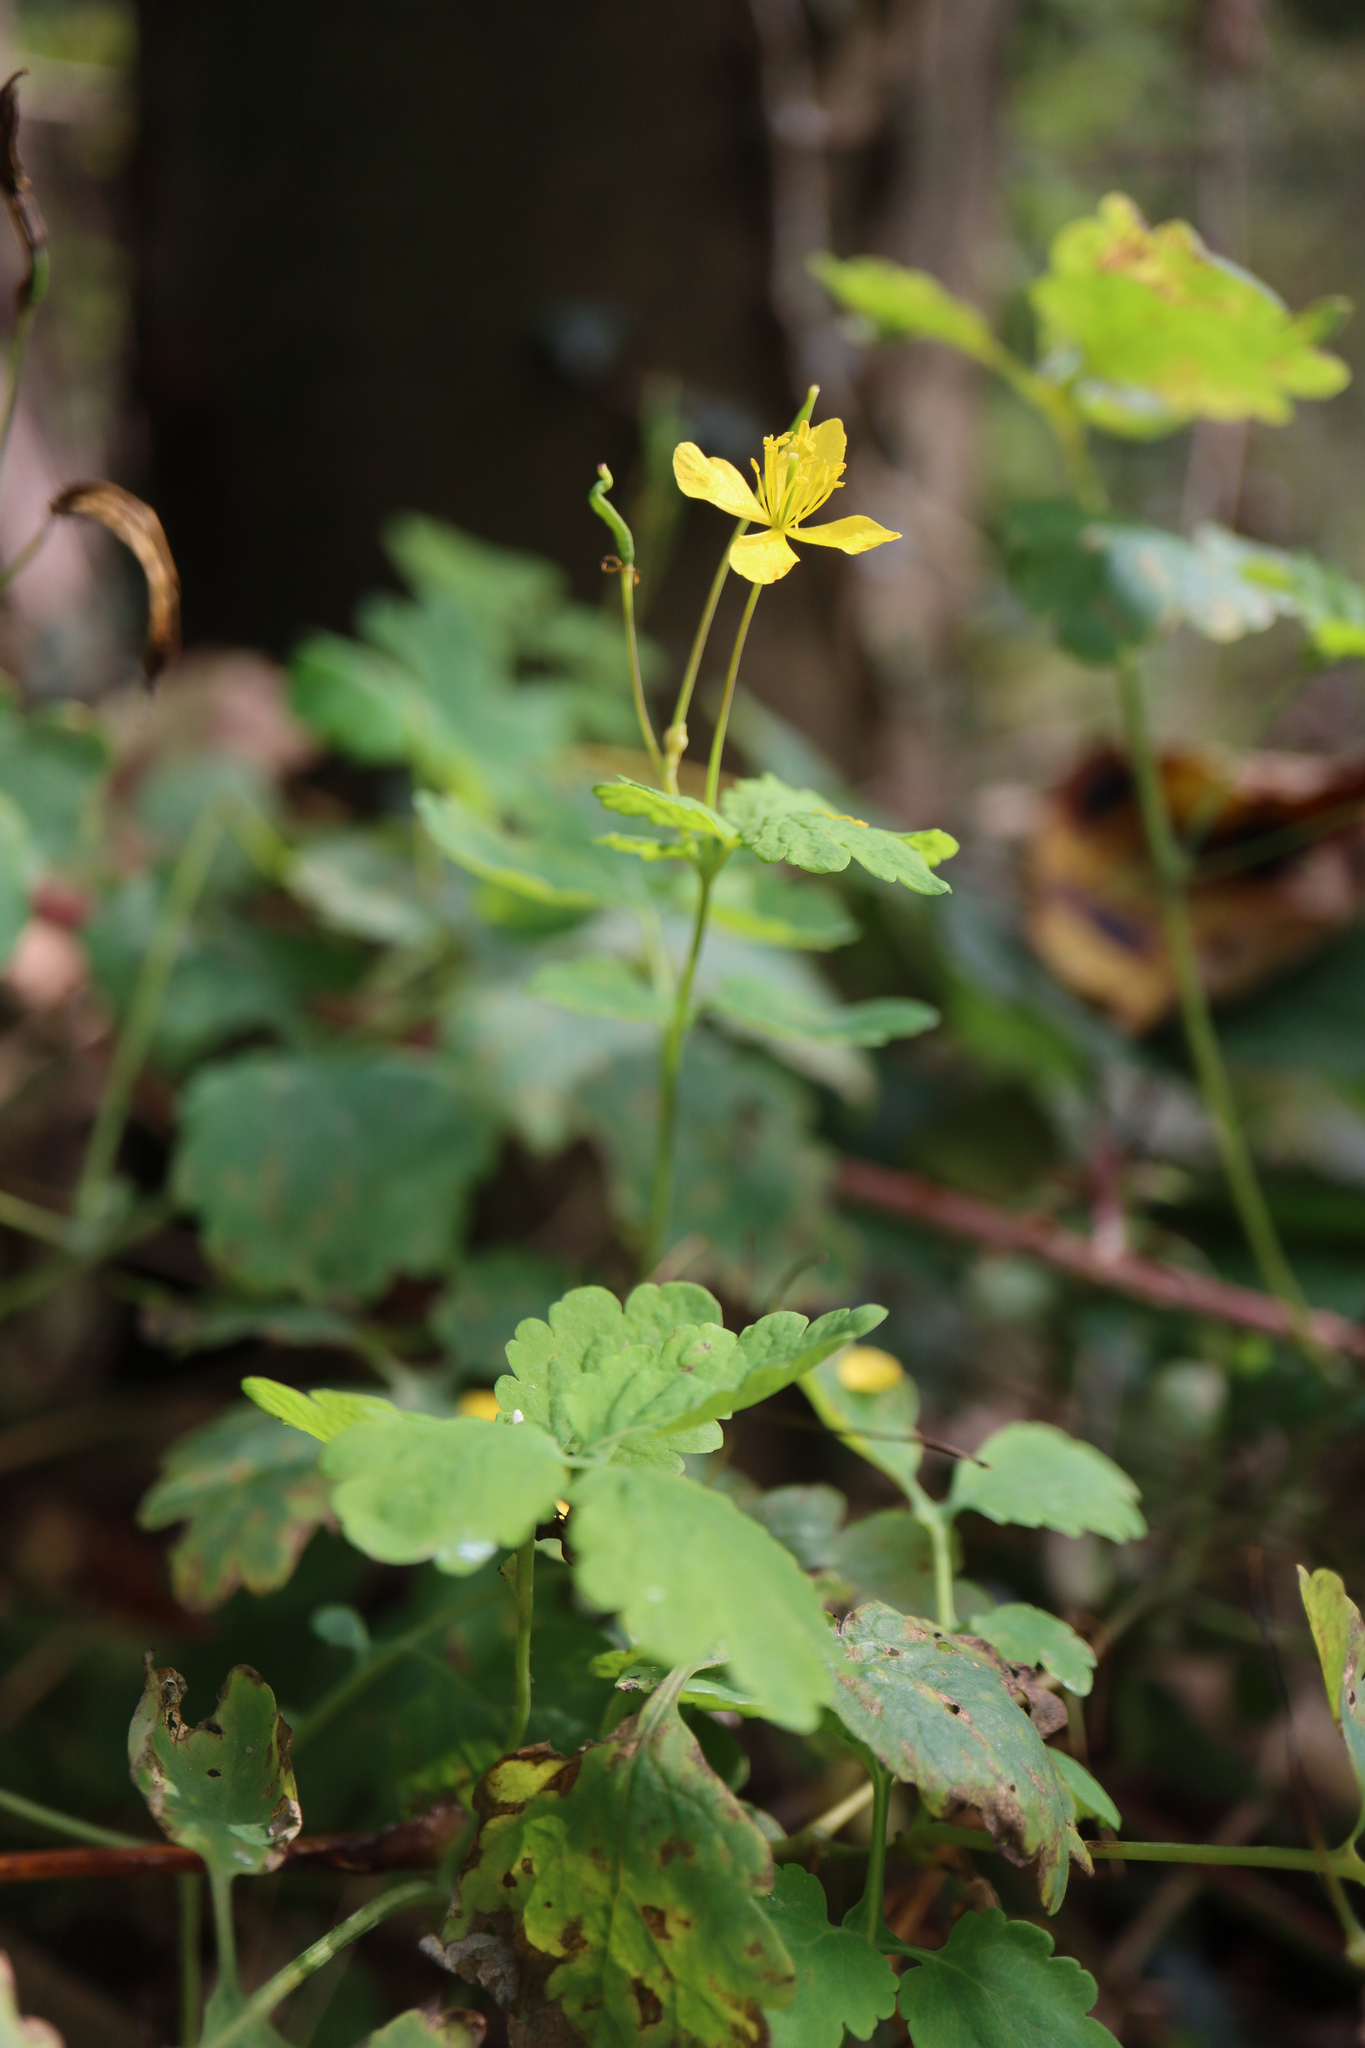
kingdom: Plantae
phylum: Tracheophyta
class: Magnoliopsida
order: Ranunculales
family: Papaveraceae
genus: Chelidonium
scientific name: Chelidonium majus
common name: Greater celandine
